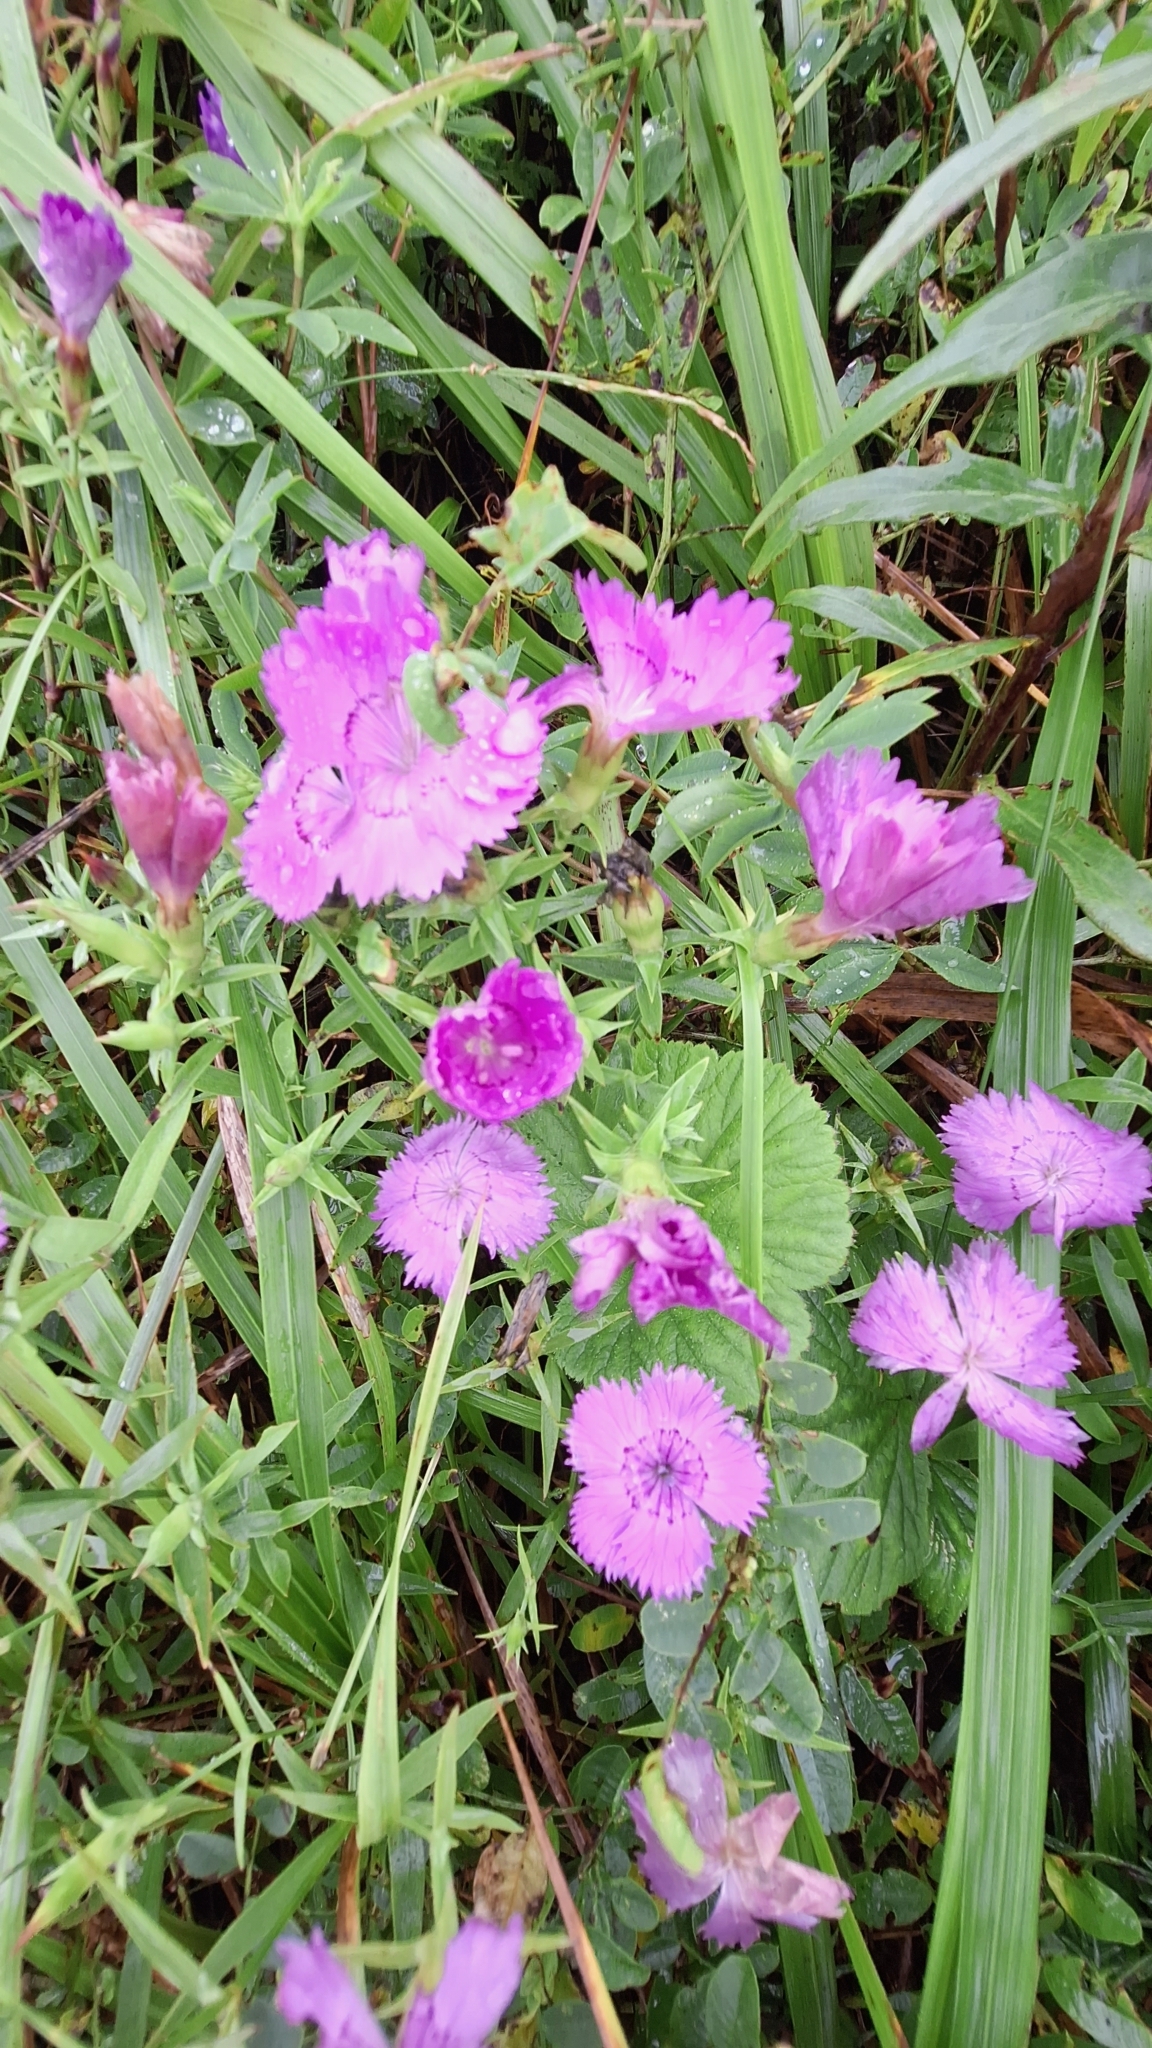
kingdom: Plantae
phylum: Tracheophyta
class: Magnoliopsida
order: Caryophyllales
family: Caryophyllaceae
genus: Dianthus
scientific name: Dianthus chinensis
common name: Rainbow pink
